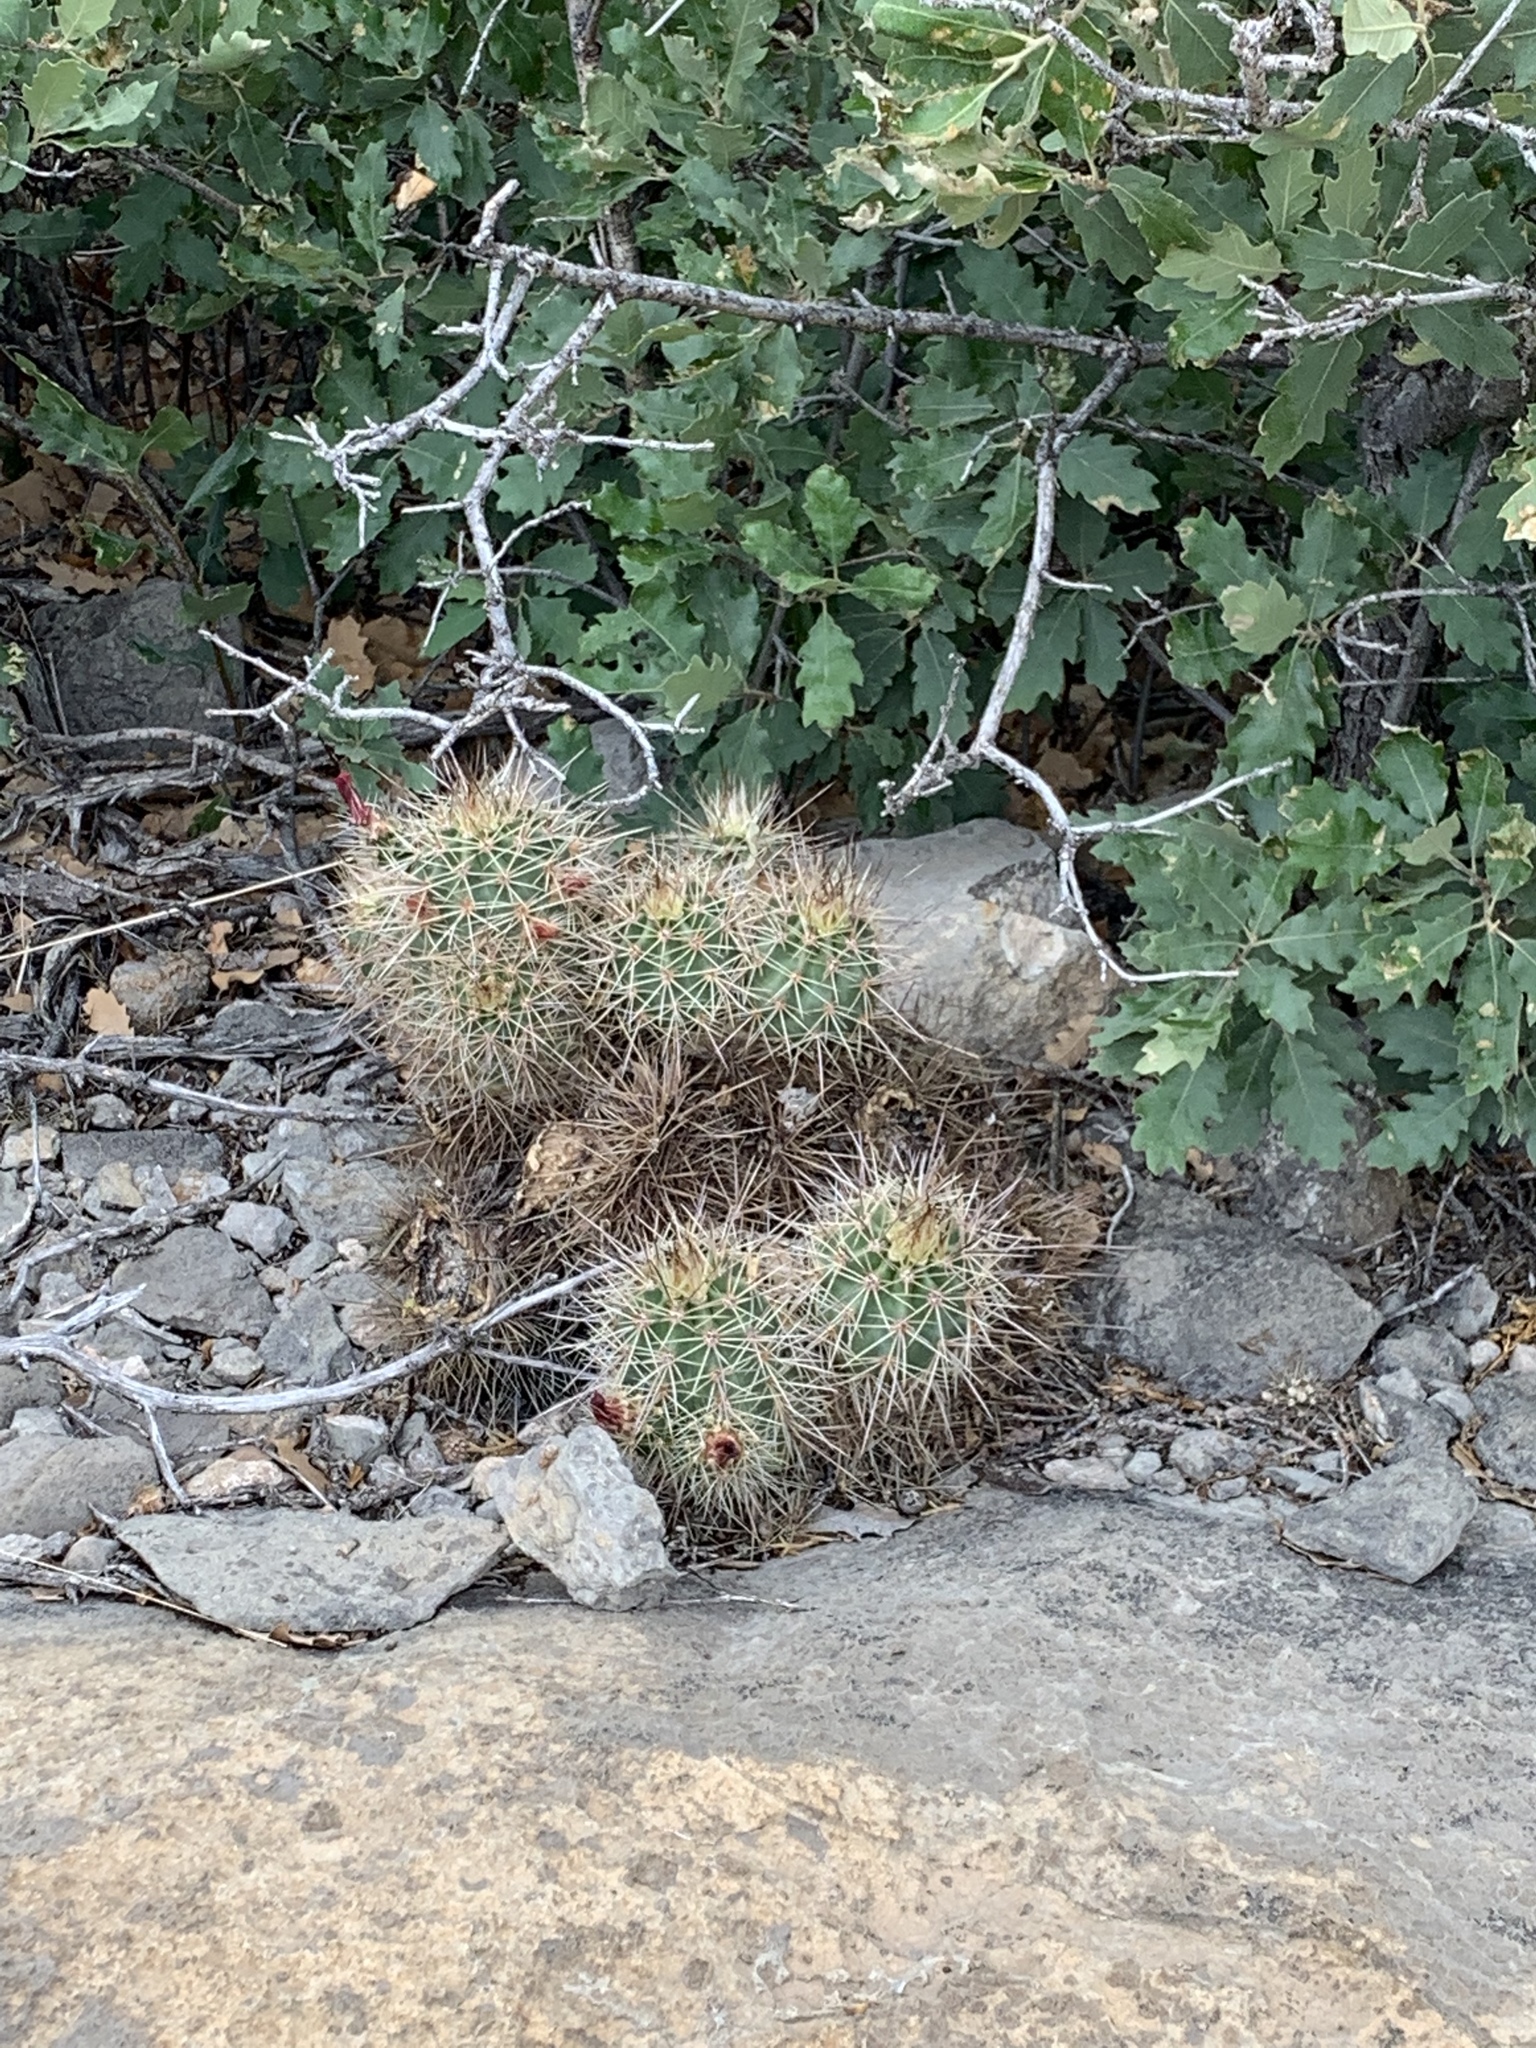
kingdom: Plantae
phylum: Tracheophyta
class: Magnoliopsida
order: Caryophyllales
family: Cactaceae
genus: Echinocereus
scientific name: Echinocereus coccineus
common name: Scarlet hedgehog cactus
